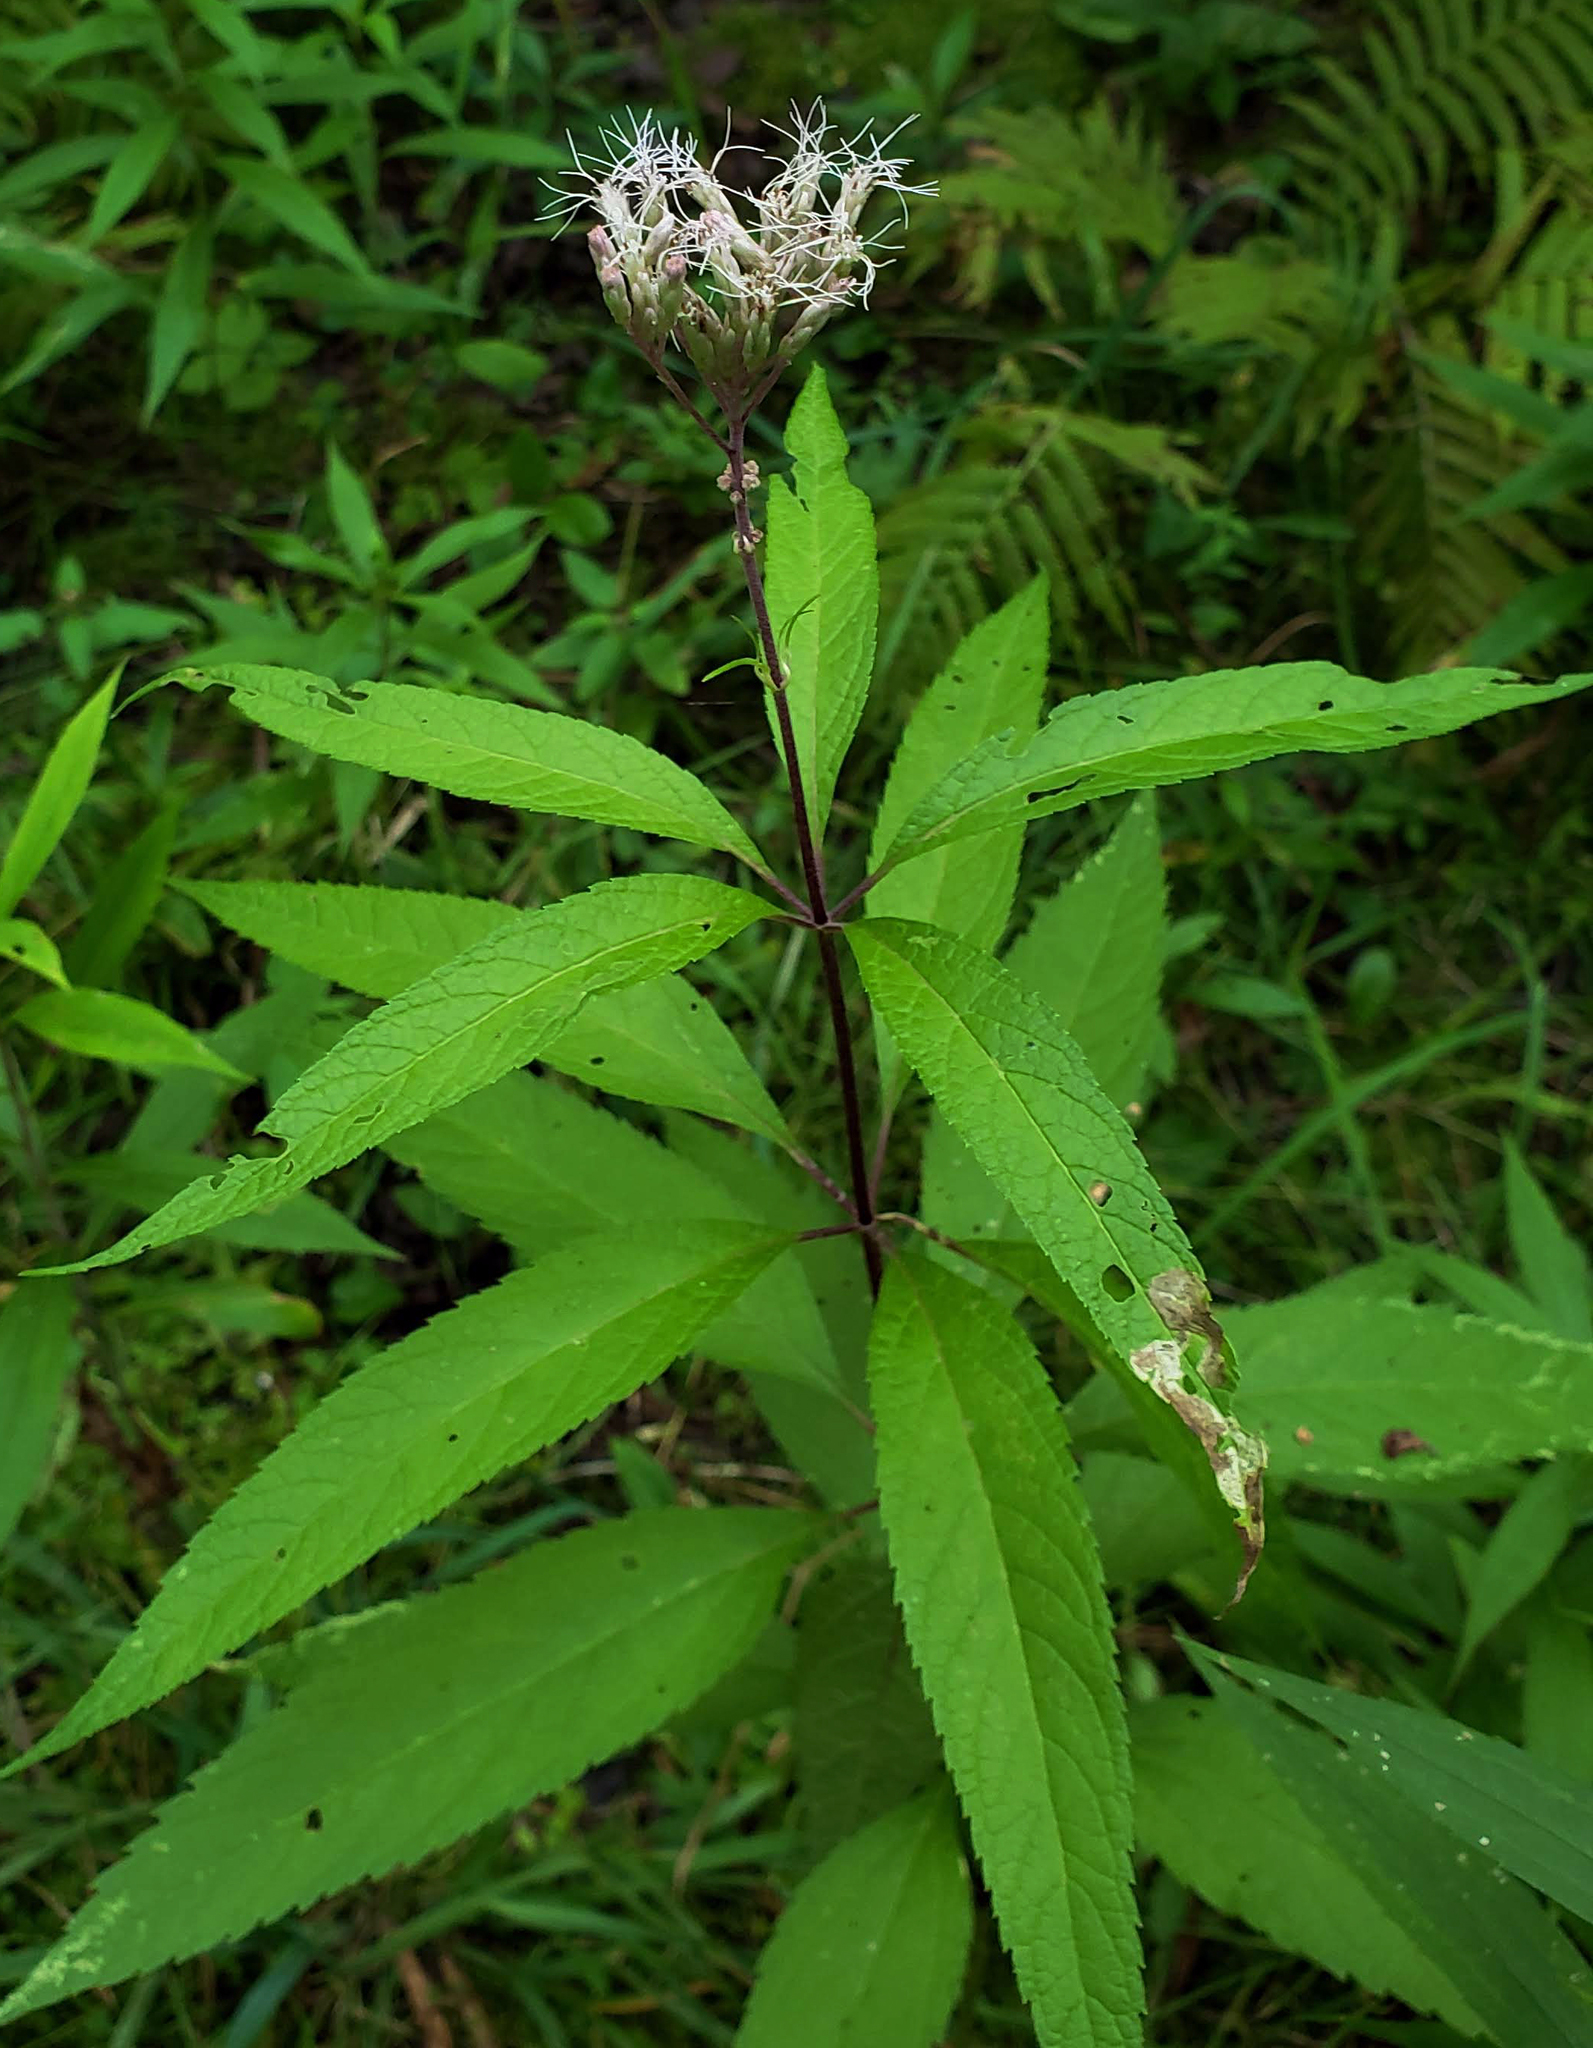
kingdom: Plantae
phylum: Tracheophyta
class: Magnoliopsida
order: Asterales
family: Asteraceae
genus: Eutrochium
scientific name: Eutrochium maculatum
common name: Spotted joe pye weed
